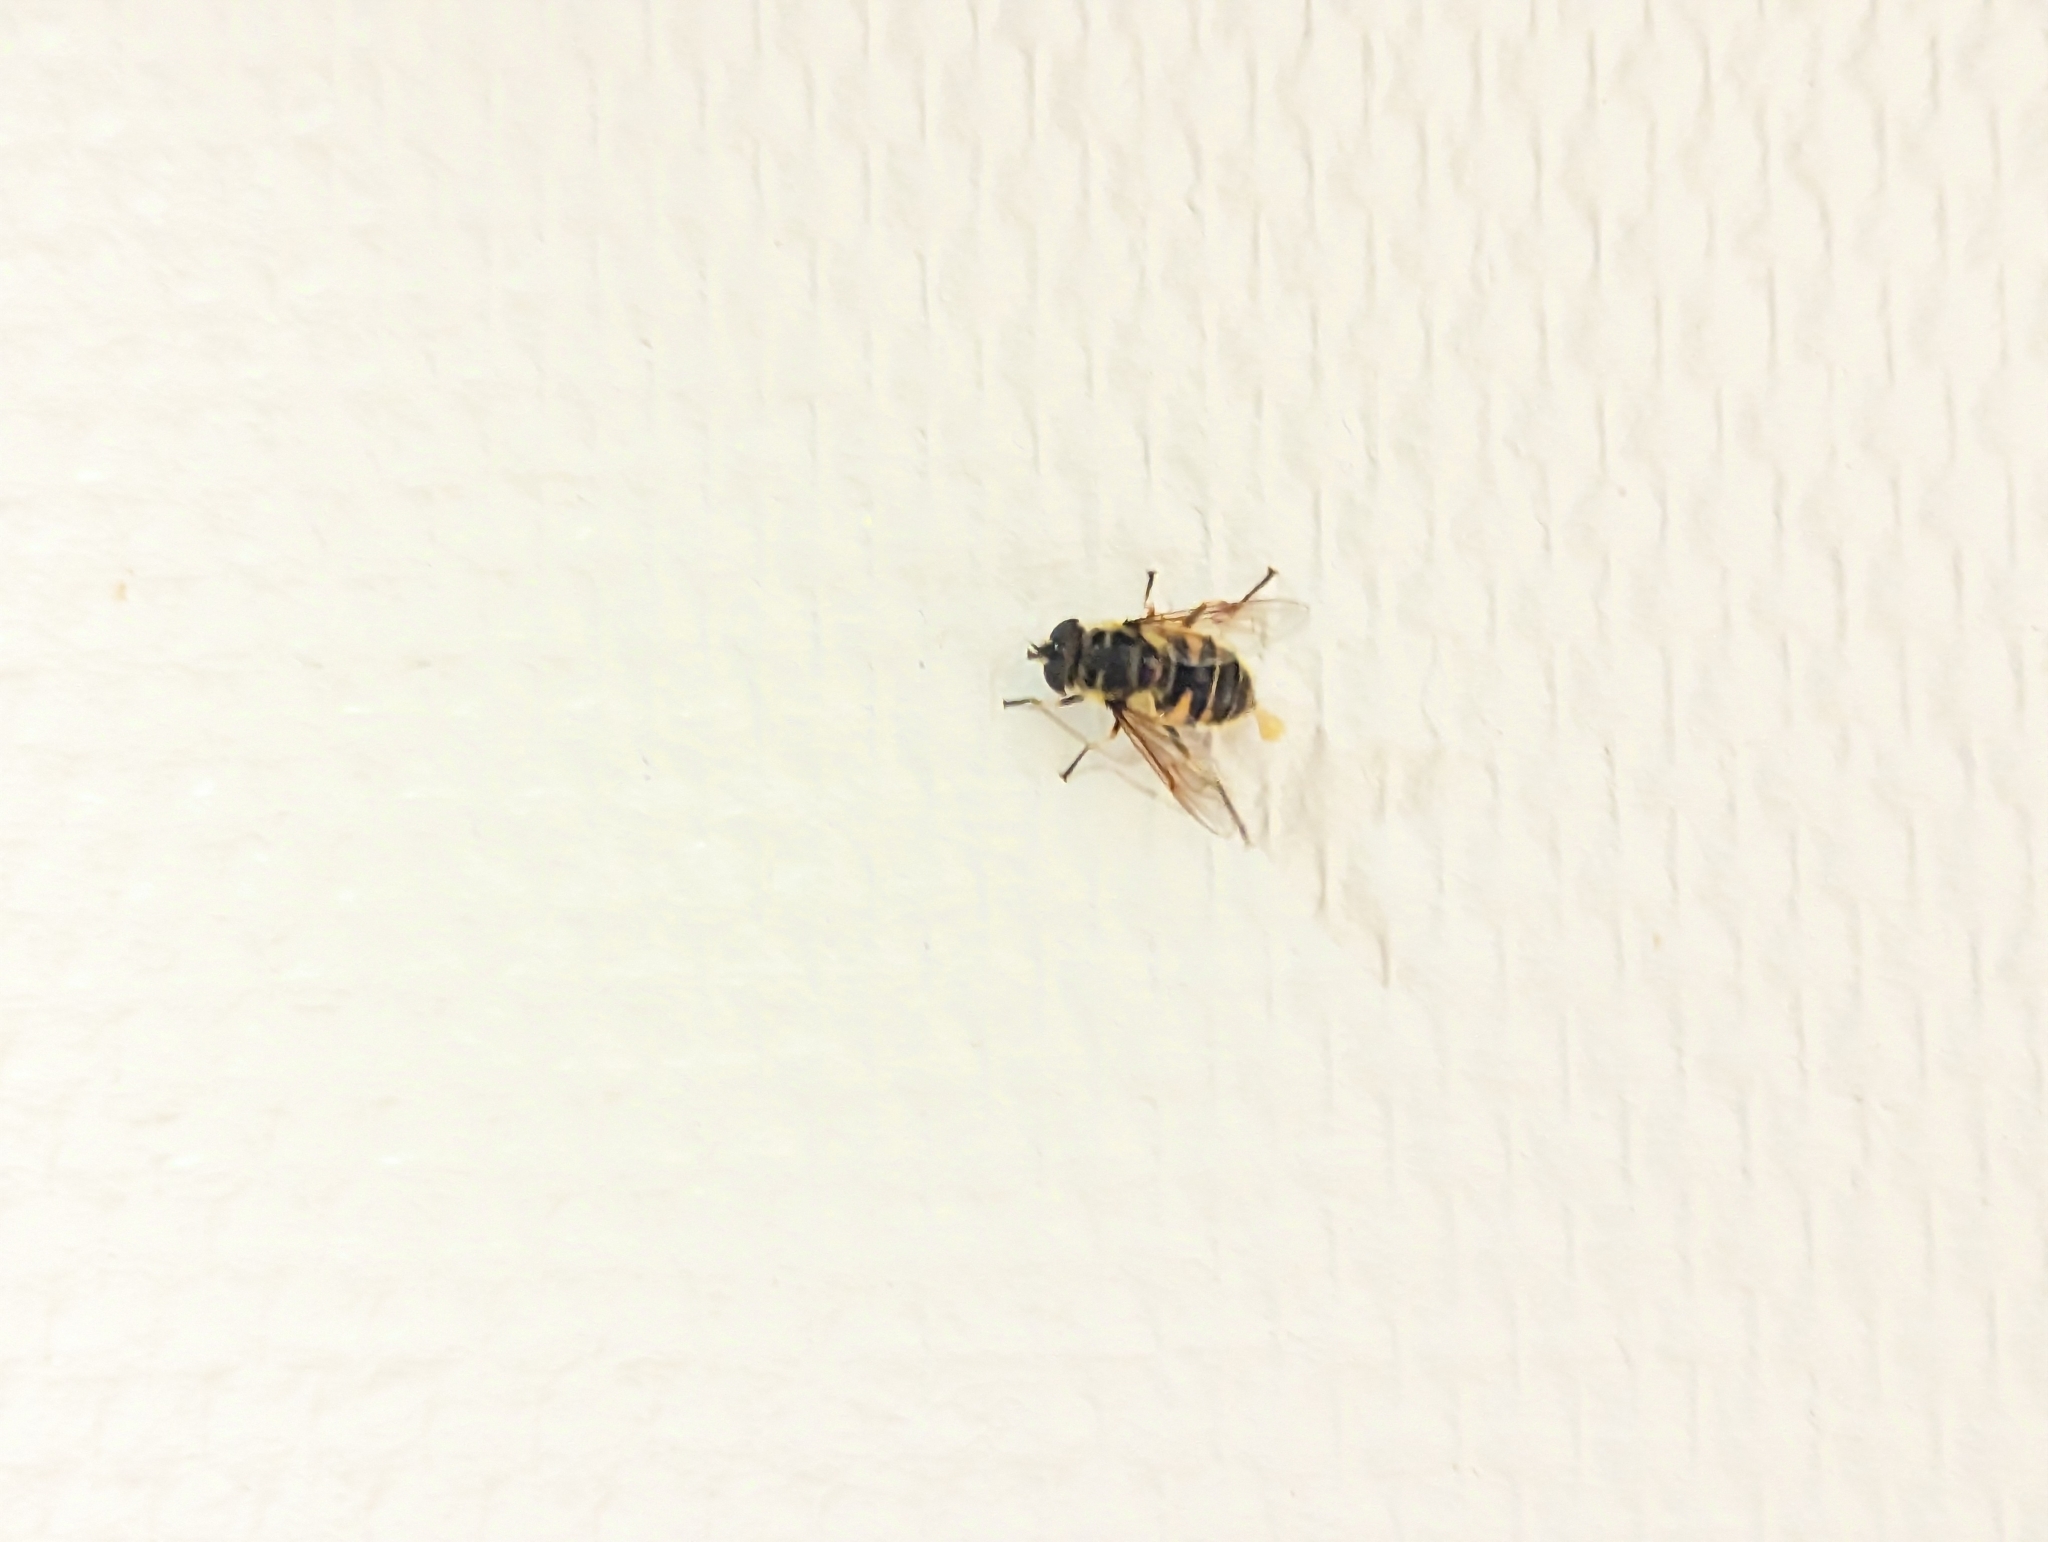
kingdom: Animalia
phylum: Arthropoda
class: Insecta
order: Diptera
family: Syrphidae
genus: Myathropa
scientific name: Myathropa florea
